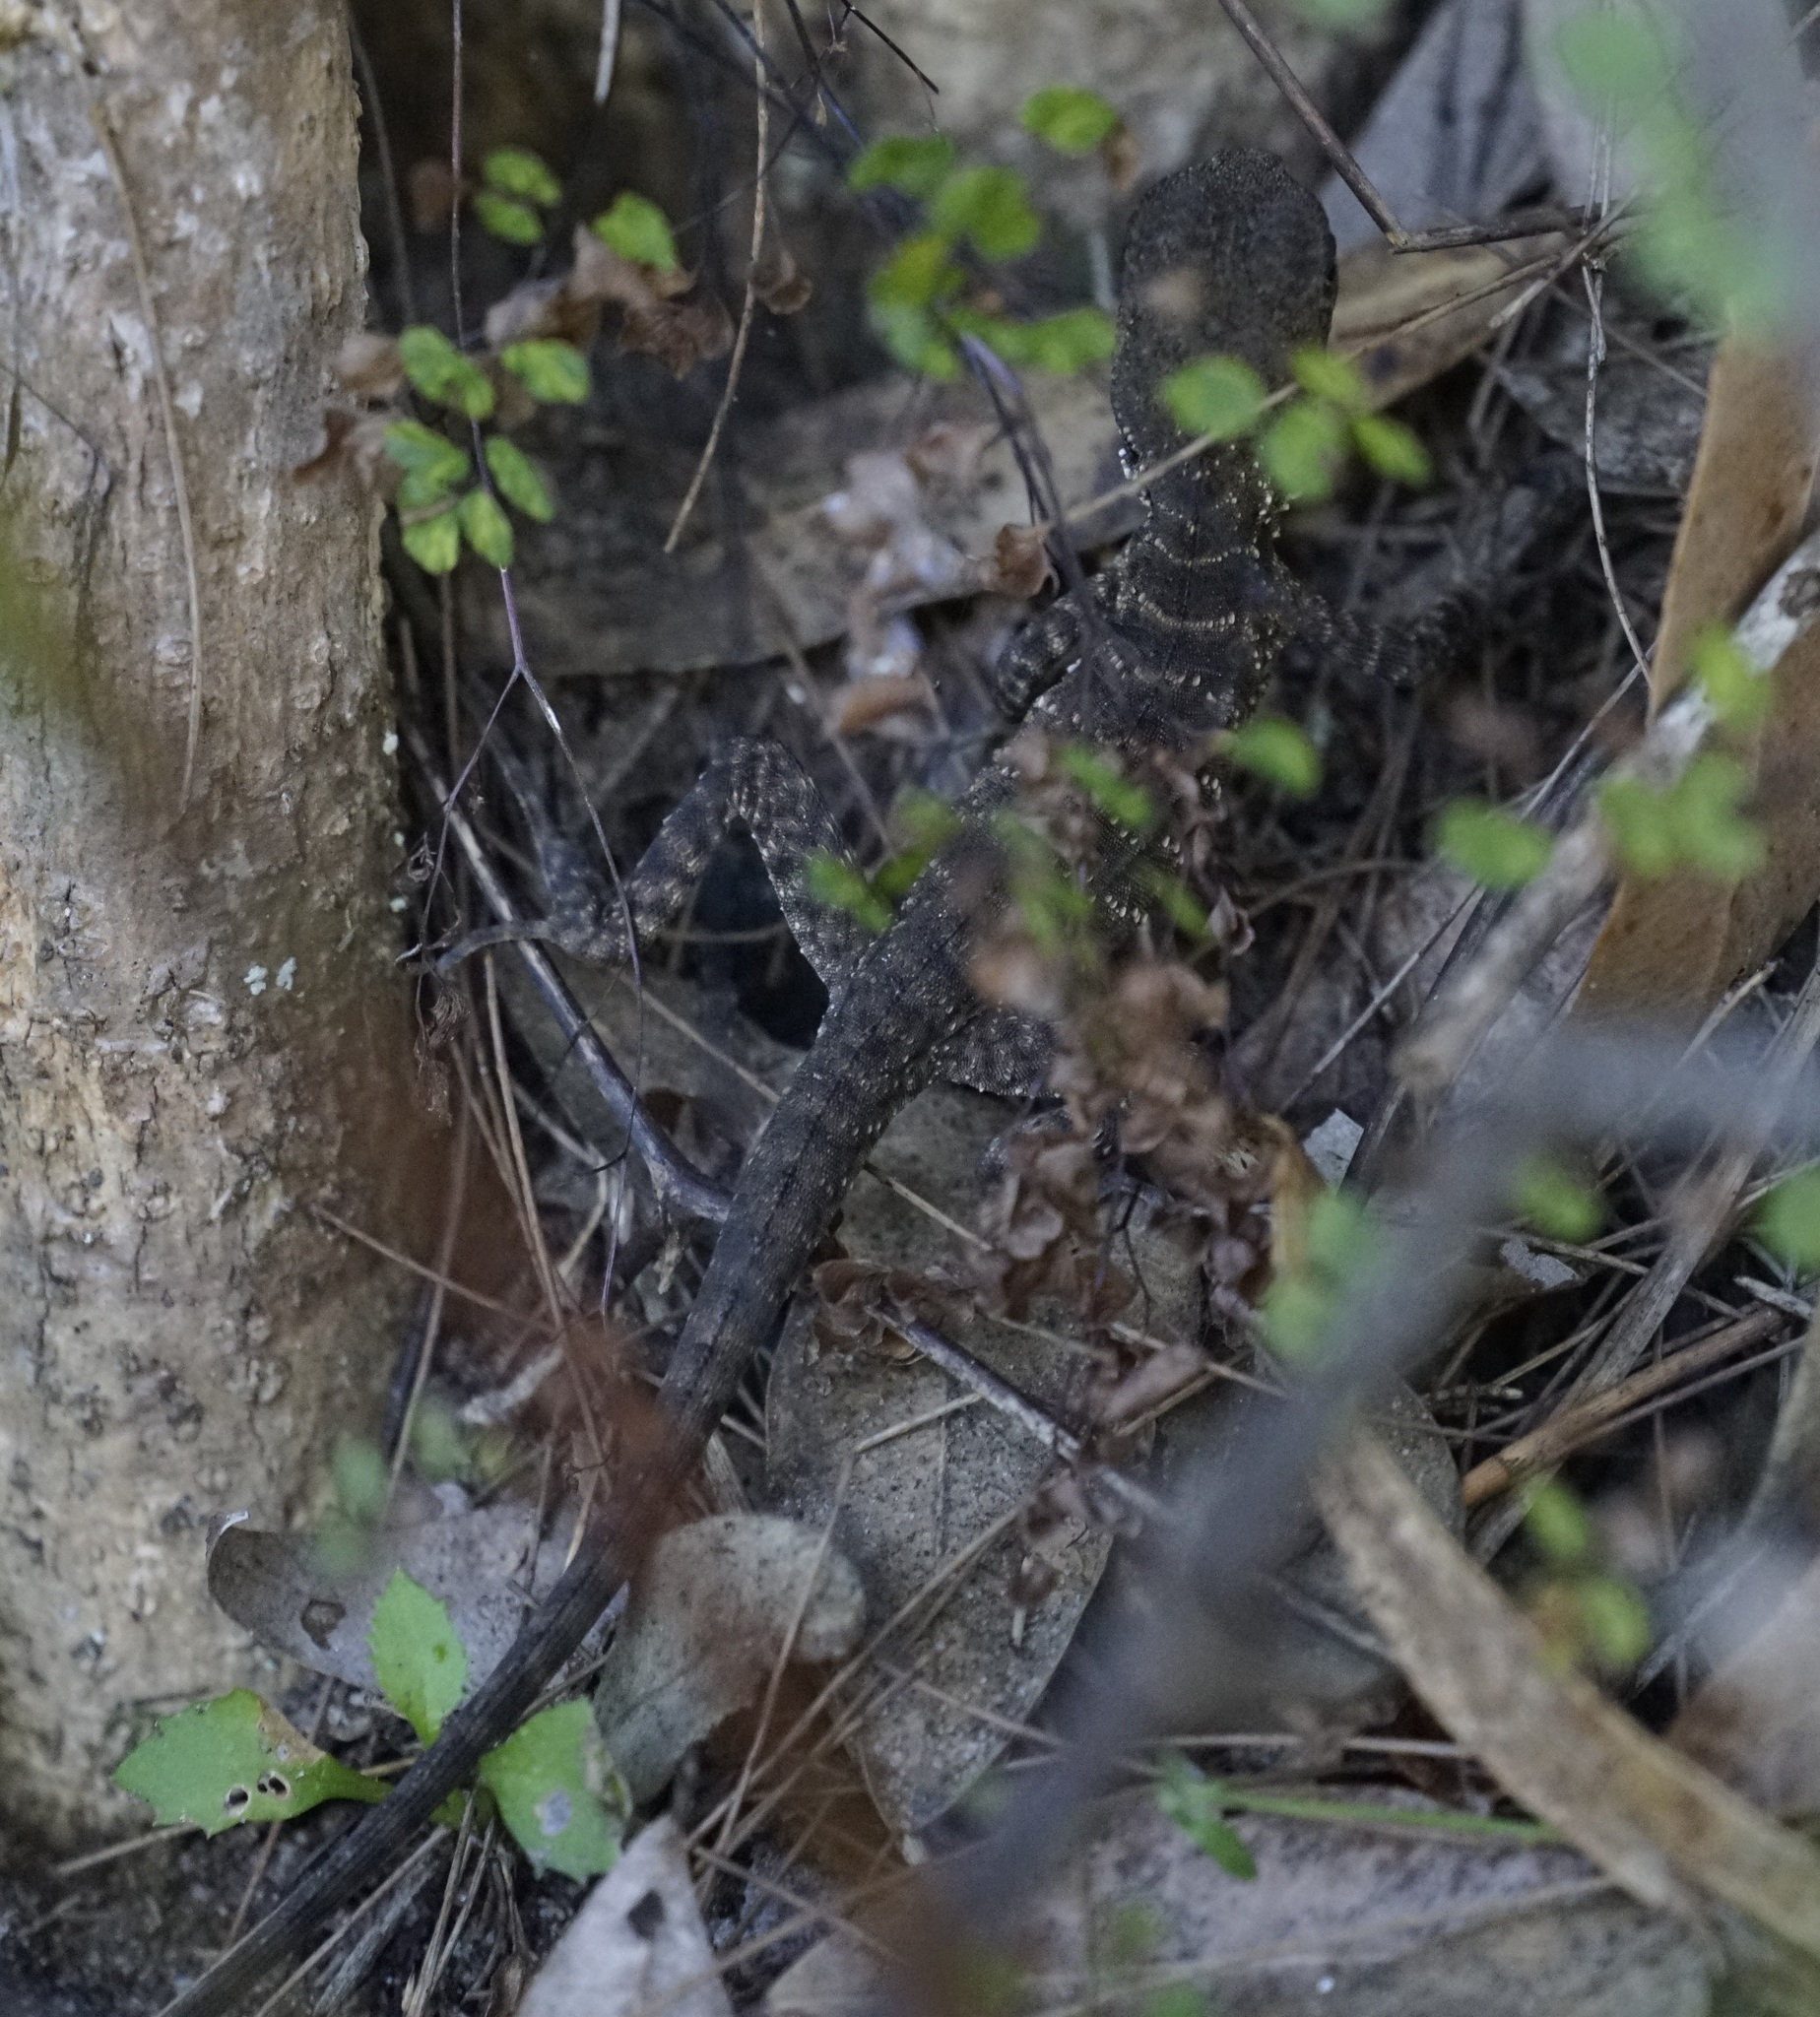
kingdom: Animalia
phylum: Chordata
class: Squamata
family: Agamidae
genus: Intellagama
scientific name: Intellagama lesueurii
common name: Eastern water dragon
